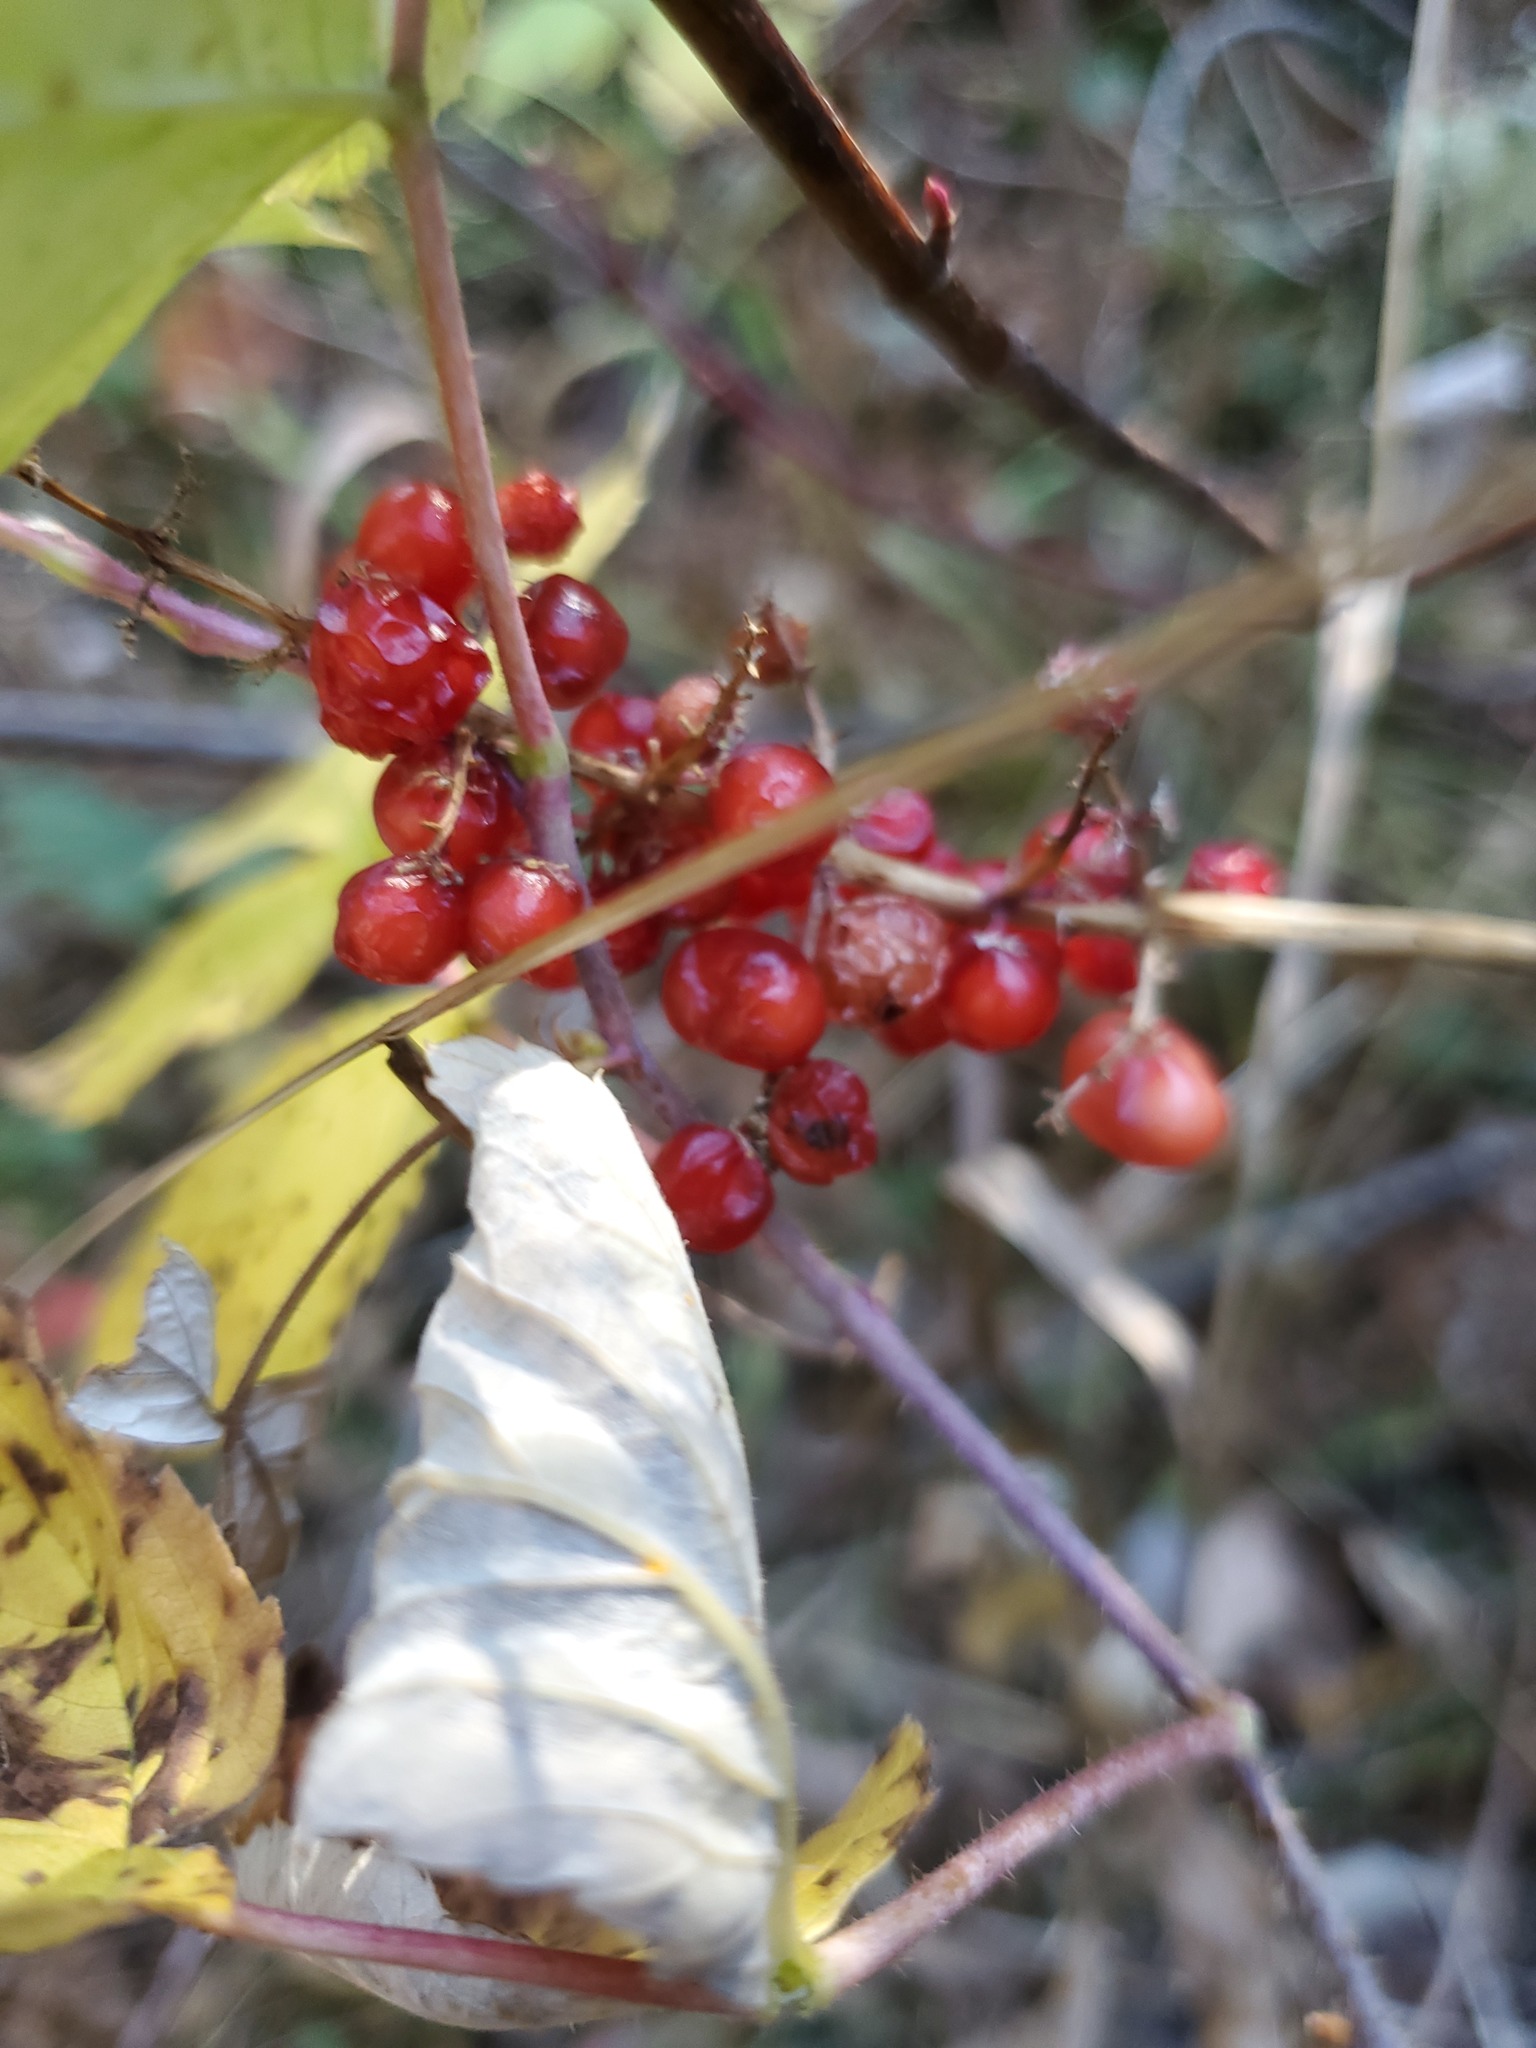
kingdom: Plantae
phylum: Tracheophyta
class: Liliopsida
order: Asparagales
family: Asparagaceae
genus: Maianthemum
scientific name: Maianthemum racemosum
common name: False spikenard
